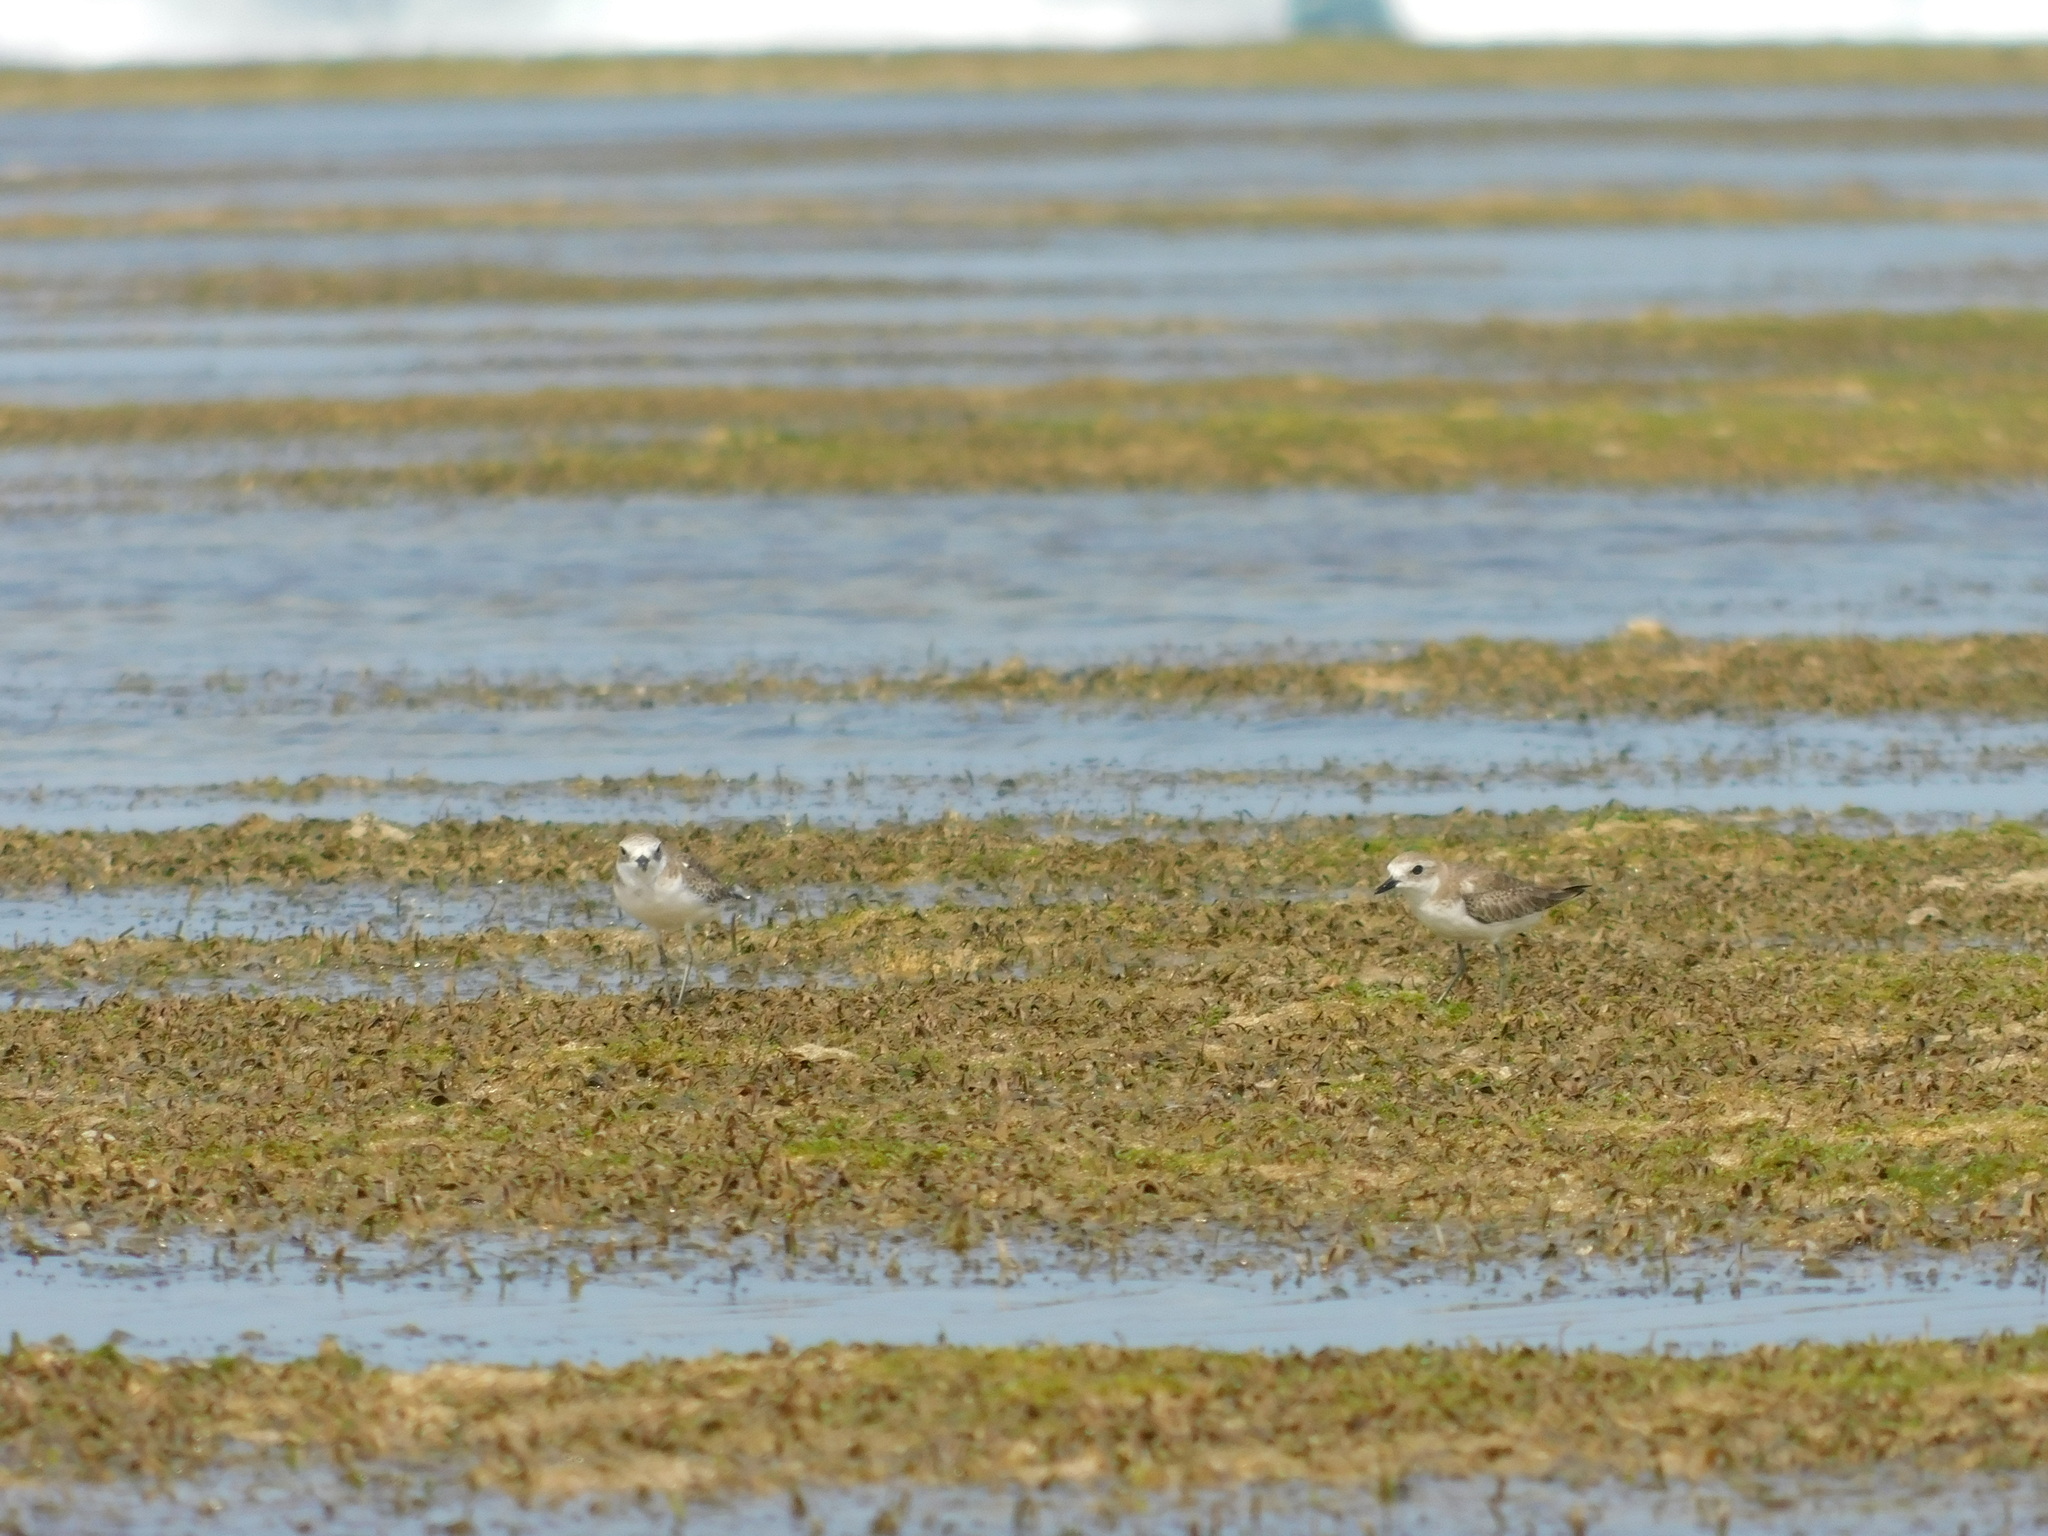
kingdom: Animalia
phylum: Chordata
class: Aves
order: Charadriiformes
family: Charadriidae
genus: Charadrius
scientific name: Charadrius leschenaultii
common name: Greater sand plover
